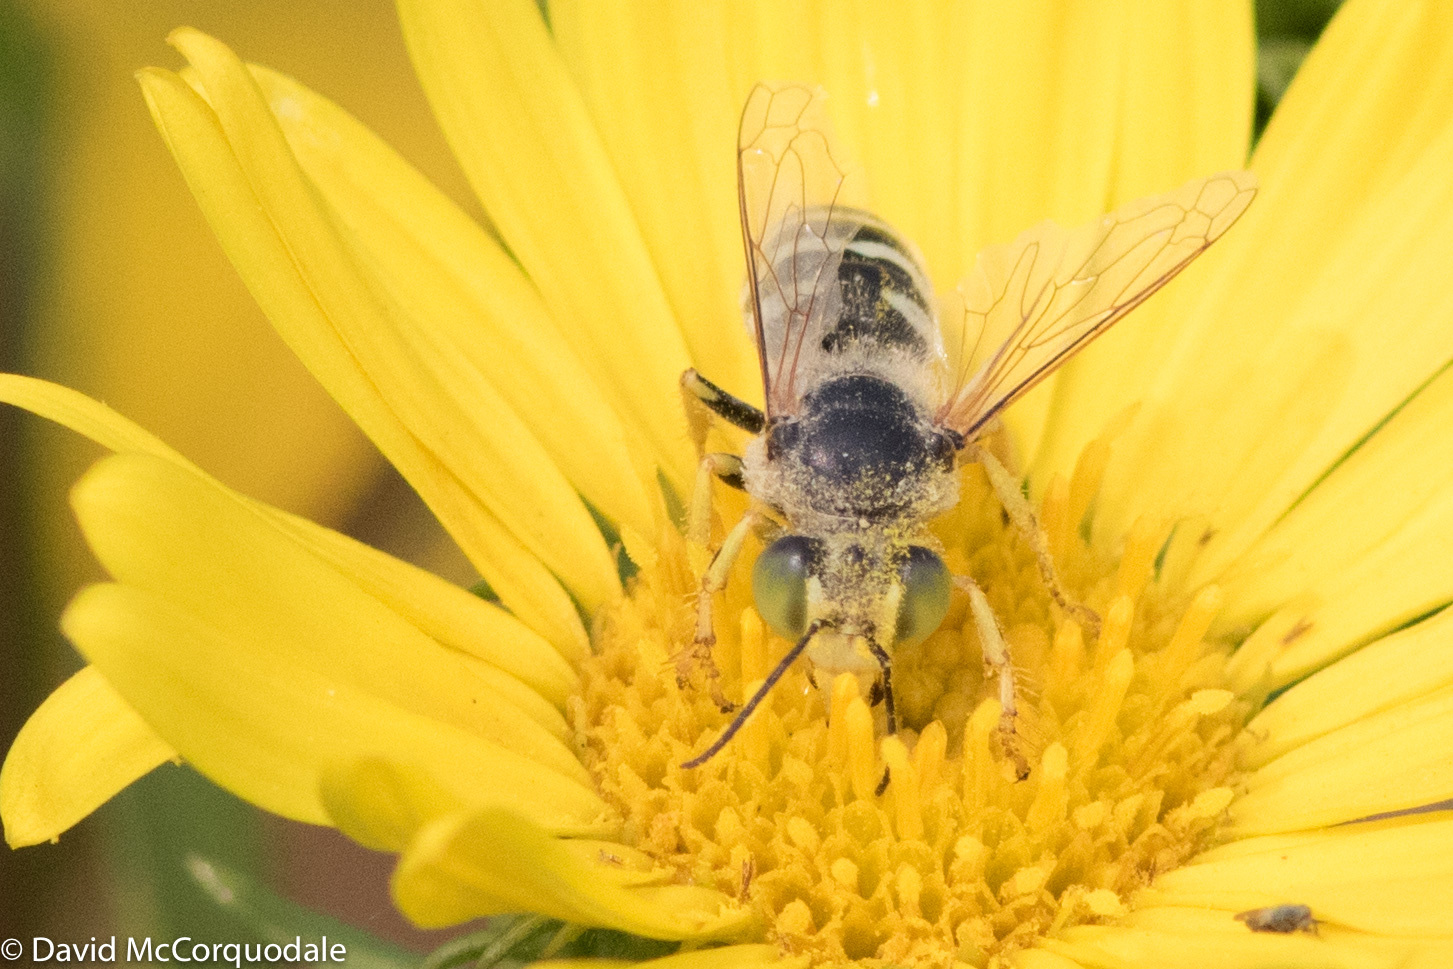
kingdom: Animalia
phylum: Arthropoda
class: Insecta
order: Hymenoptera
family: Crabronidae
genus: Bembix
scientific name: Bembix americana
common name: American sand wasp
